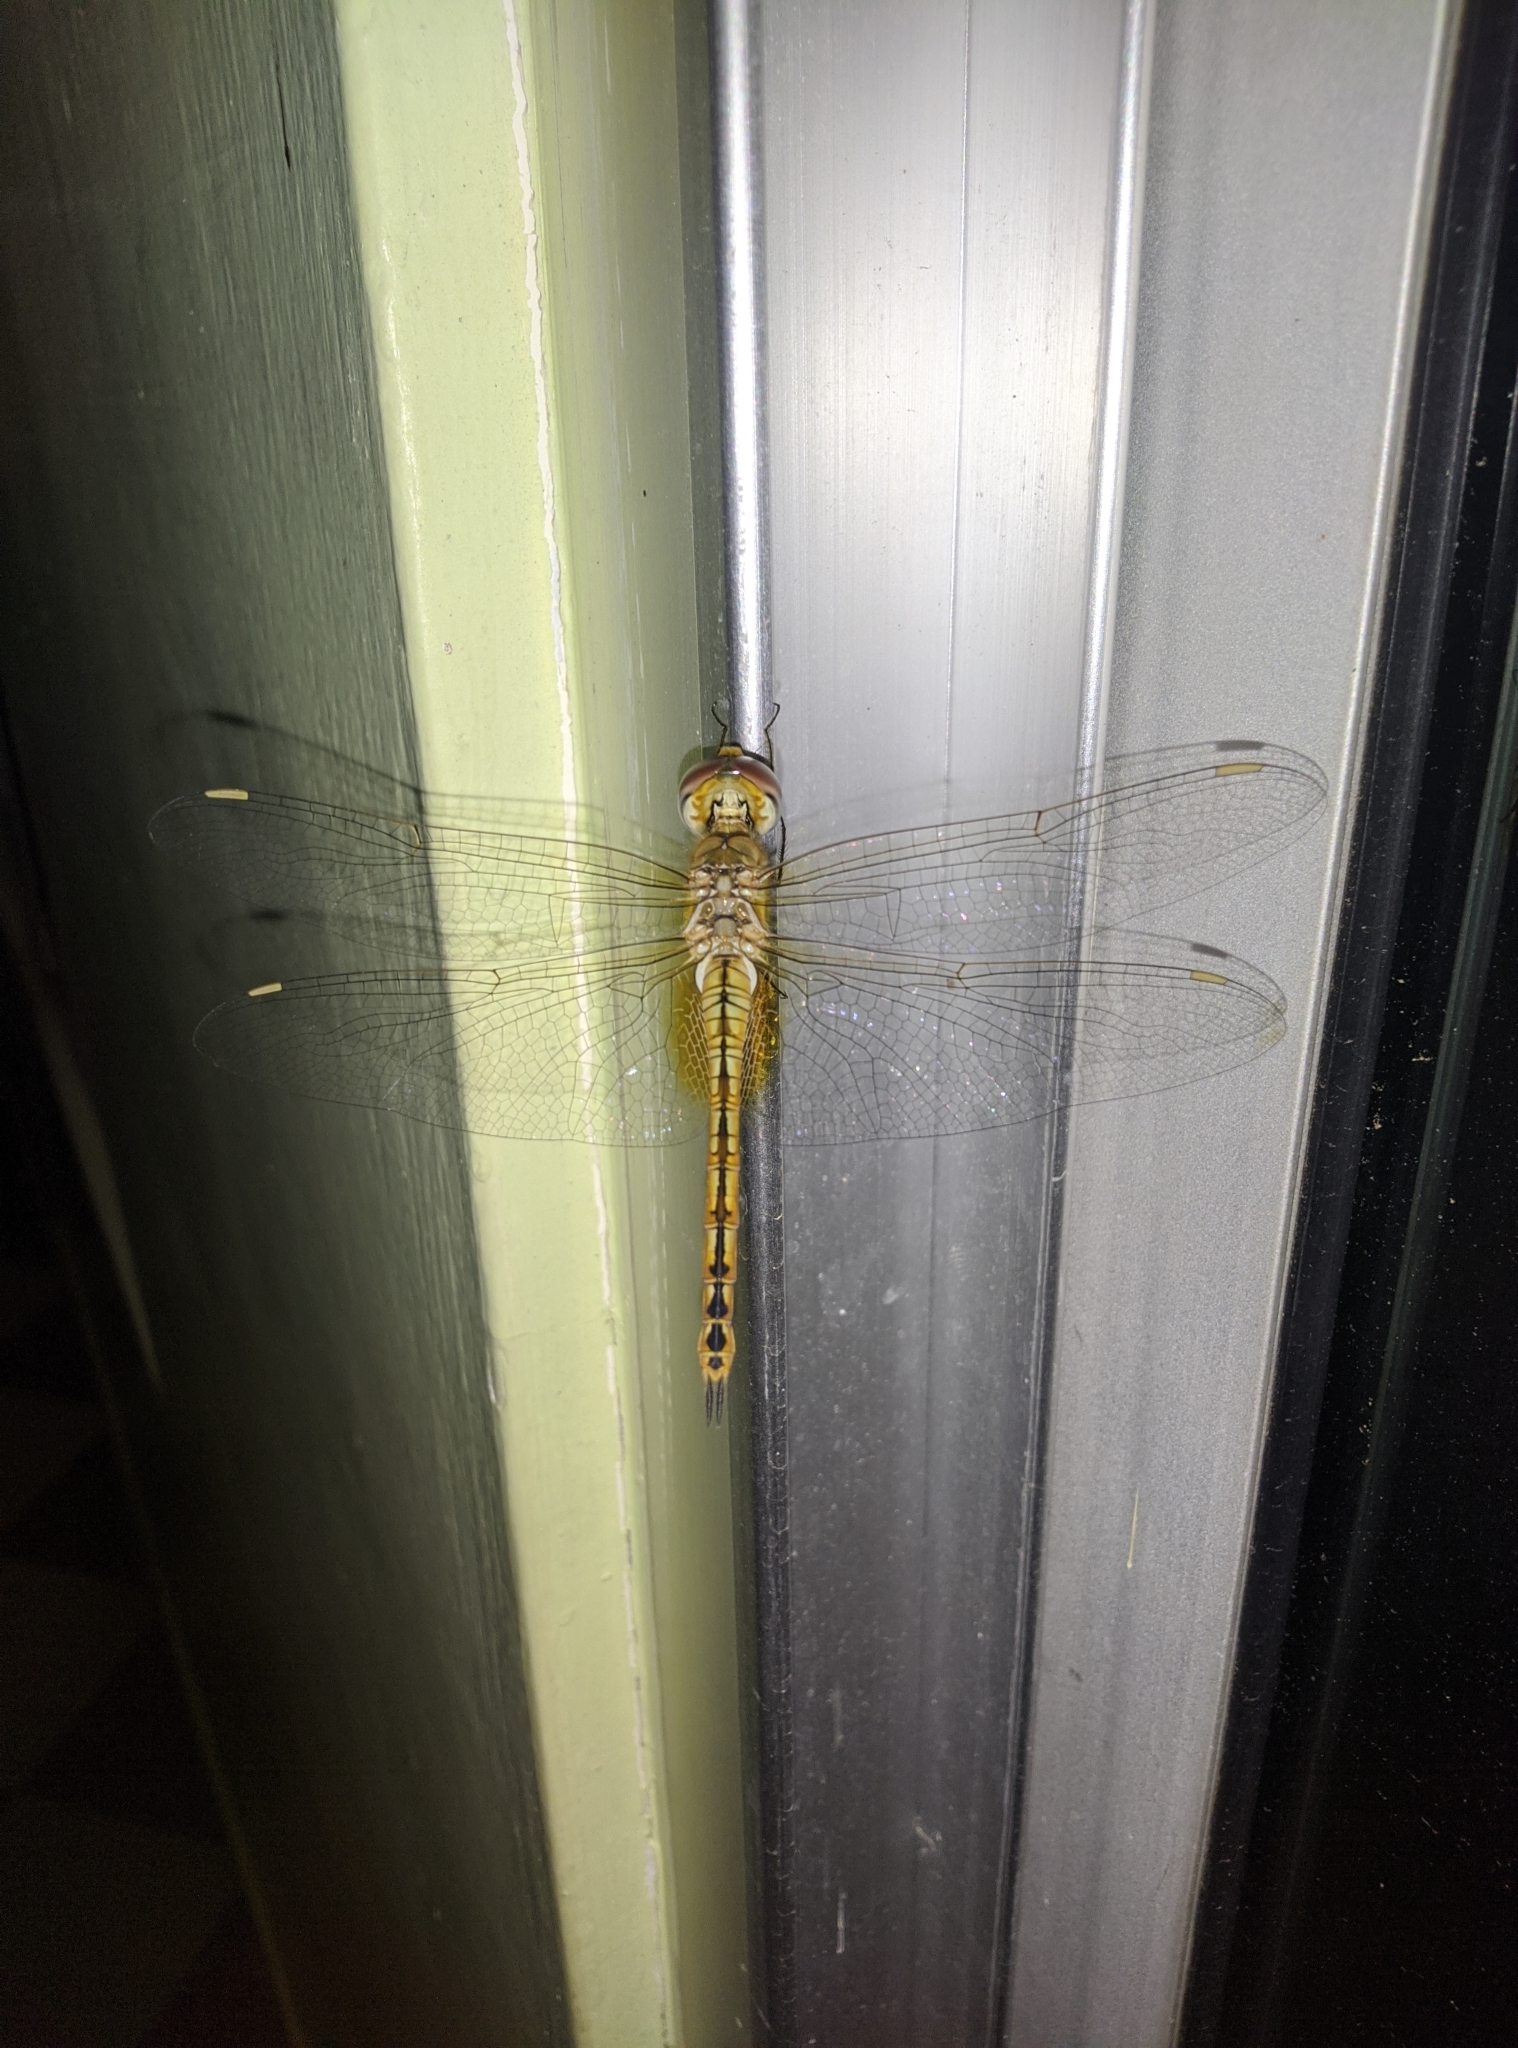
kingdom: Animalia
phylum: Arthropoda
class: Insecta
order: Odonata
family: Libellulidae
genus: Pantala
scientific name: Pantala flavescens
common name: Wandering glider
